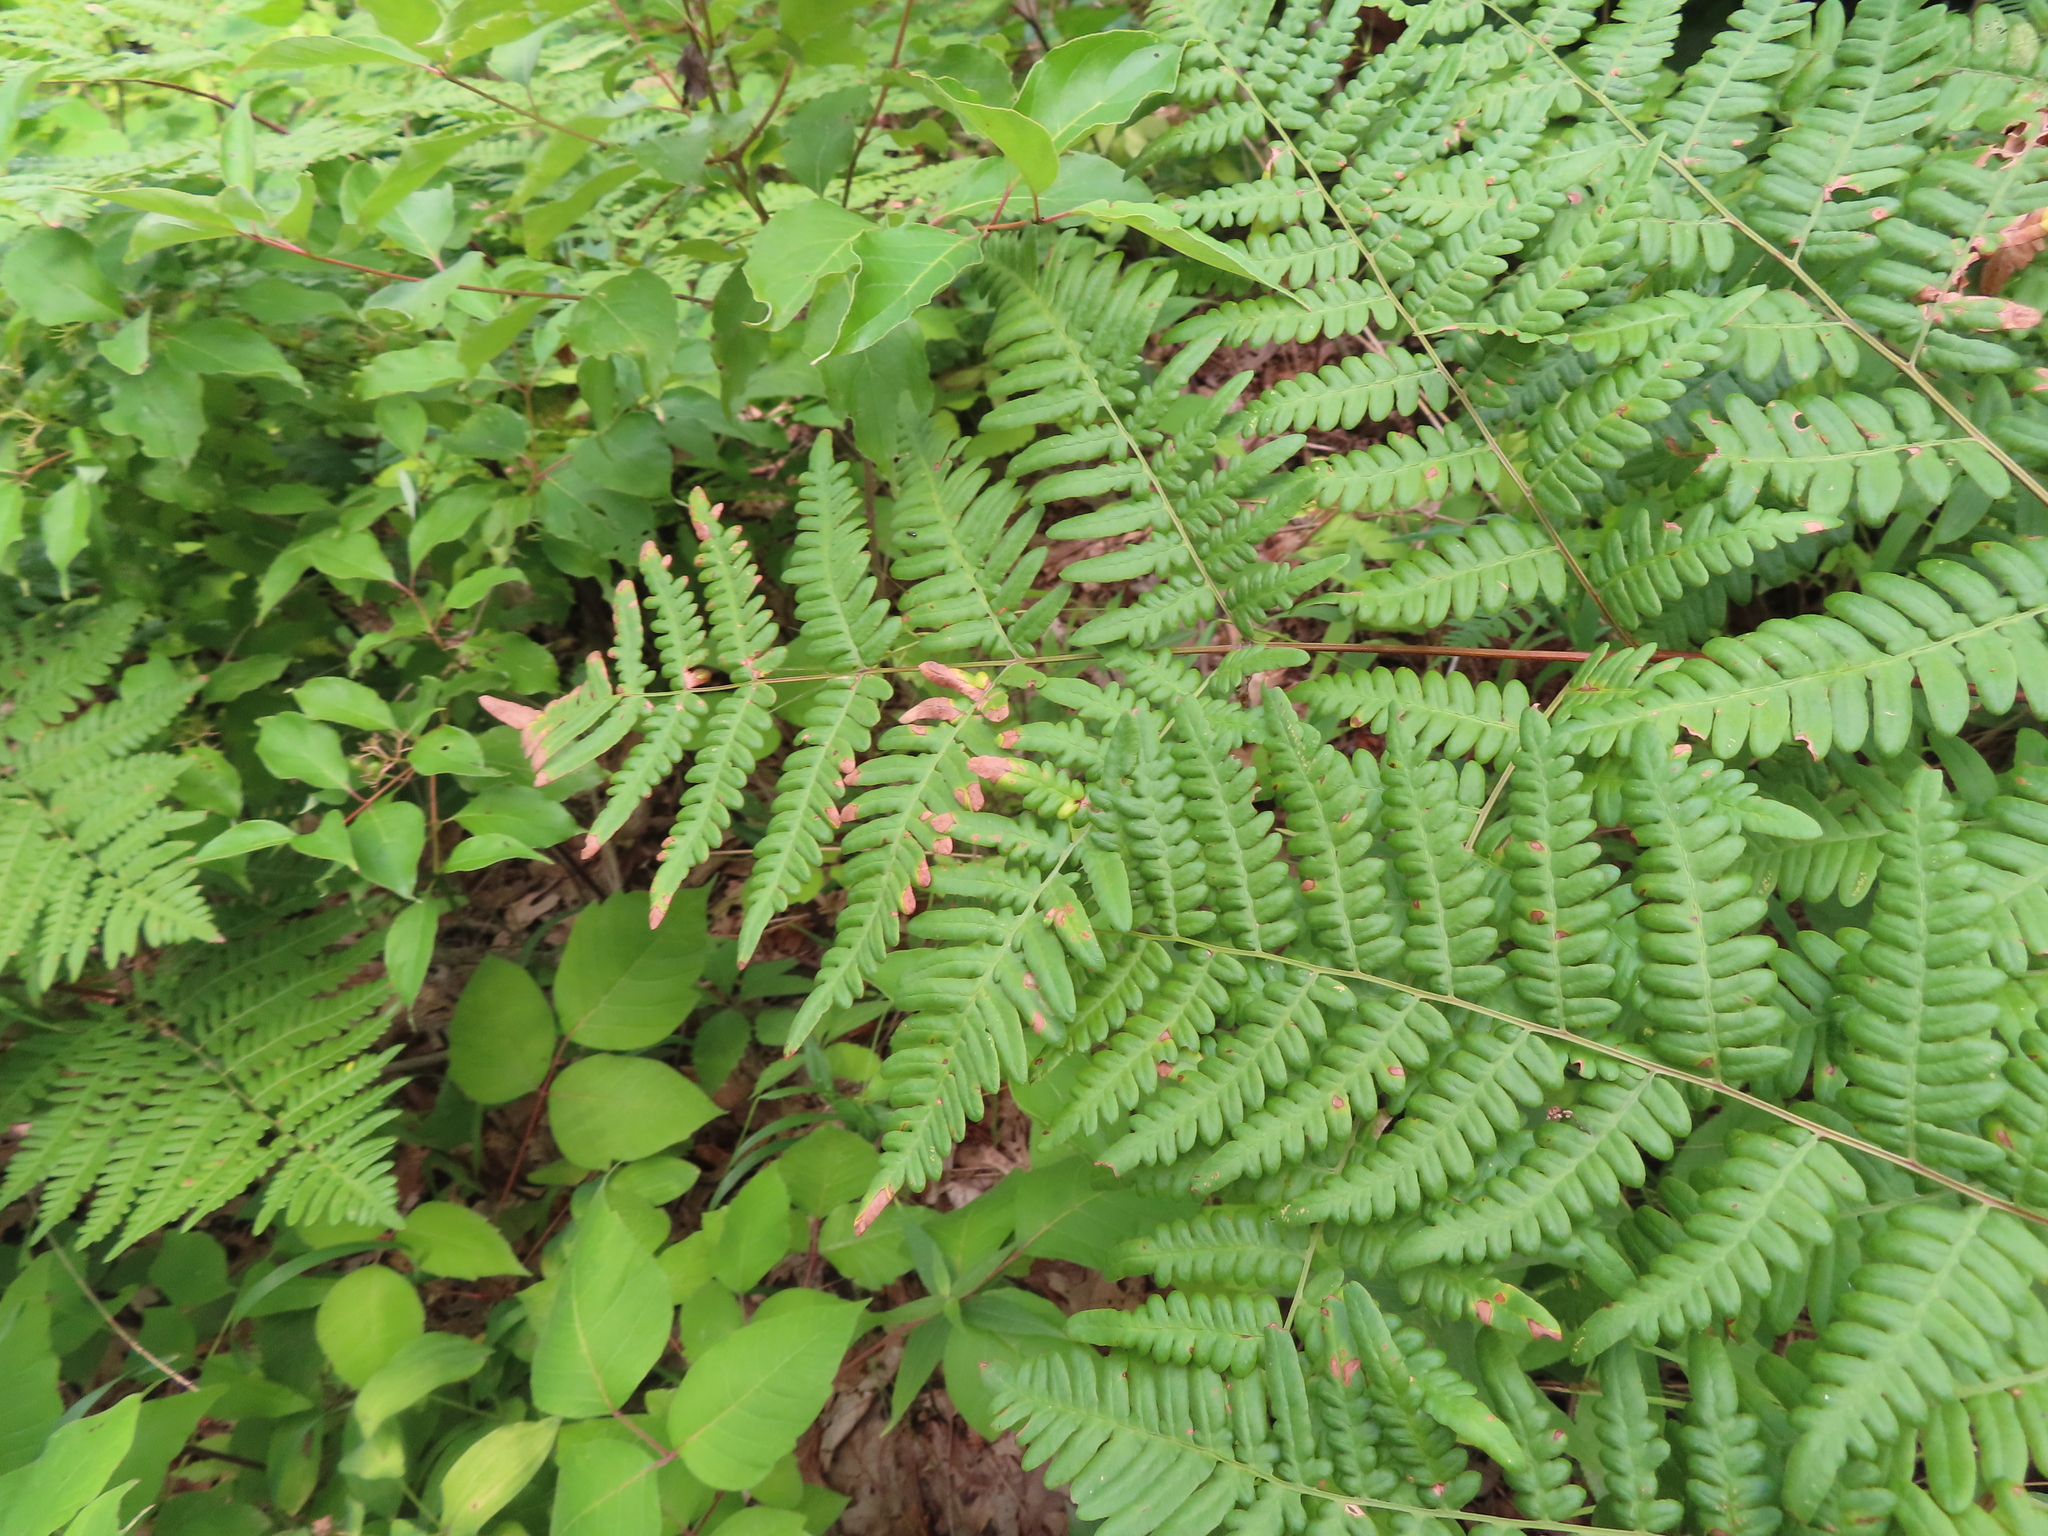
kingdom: Plantae
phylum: Tracheophyta
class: Polypodiopsida
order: Polypodiales
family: Dennstaedtiaceae
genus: Pteridium
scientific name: Pteridium aquilinum
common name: Bracken
